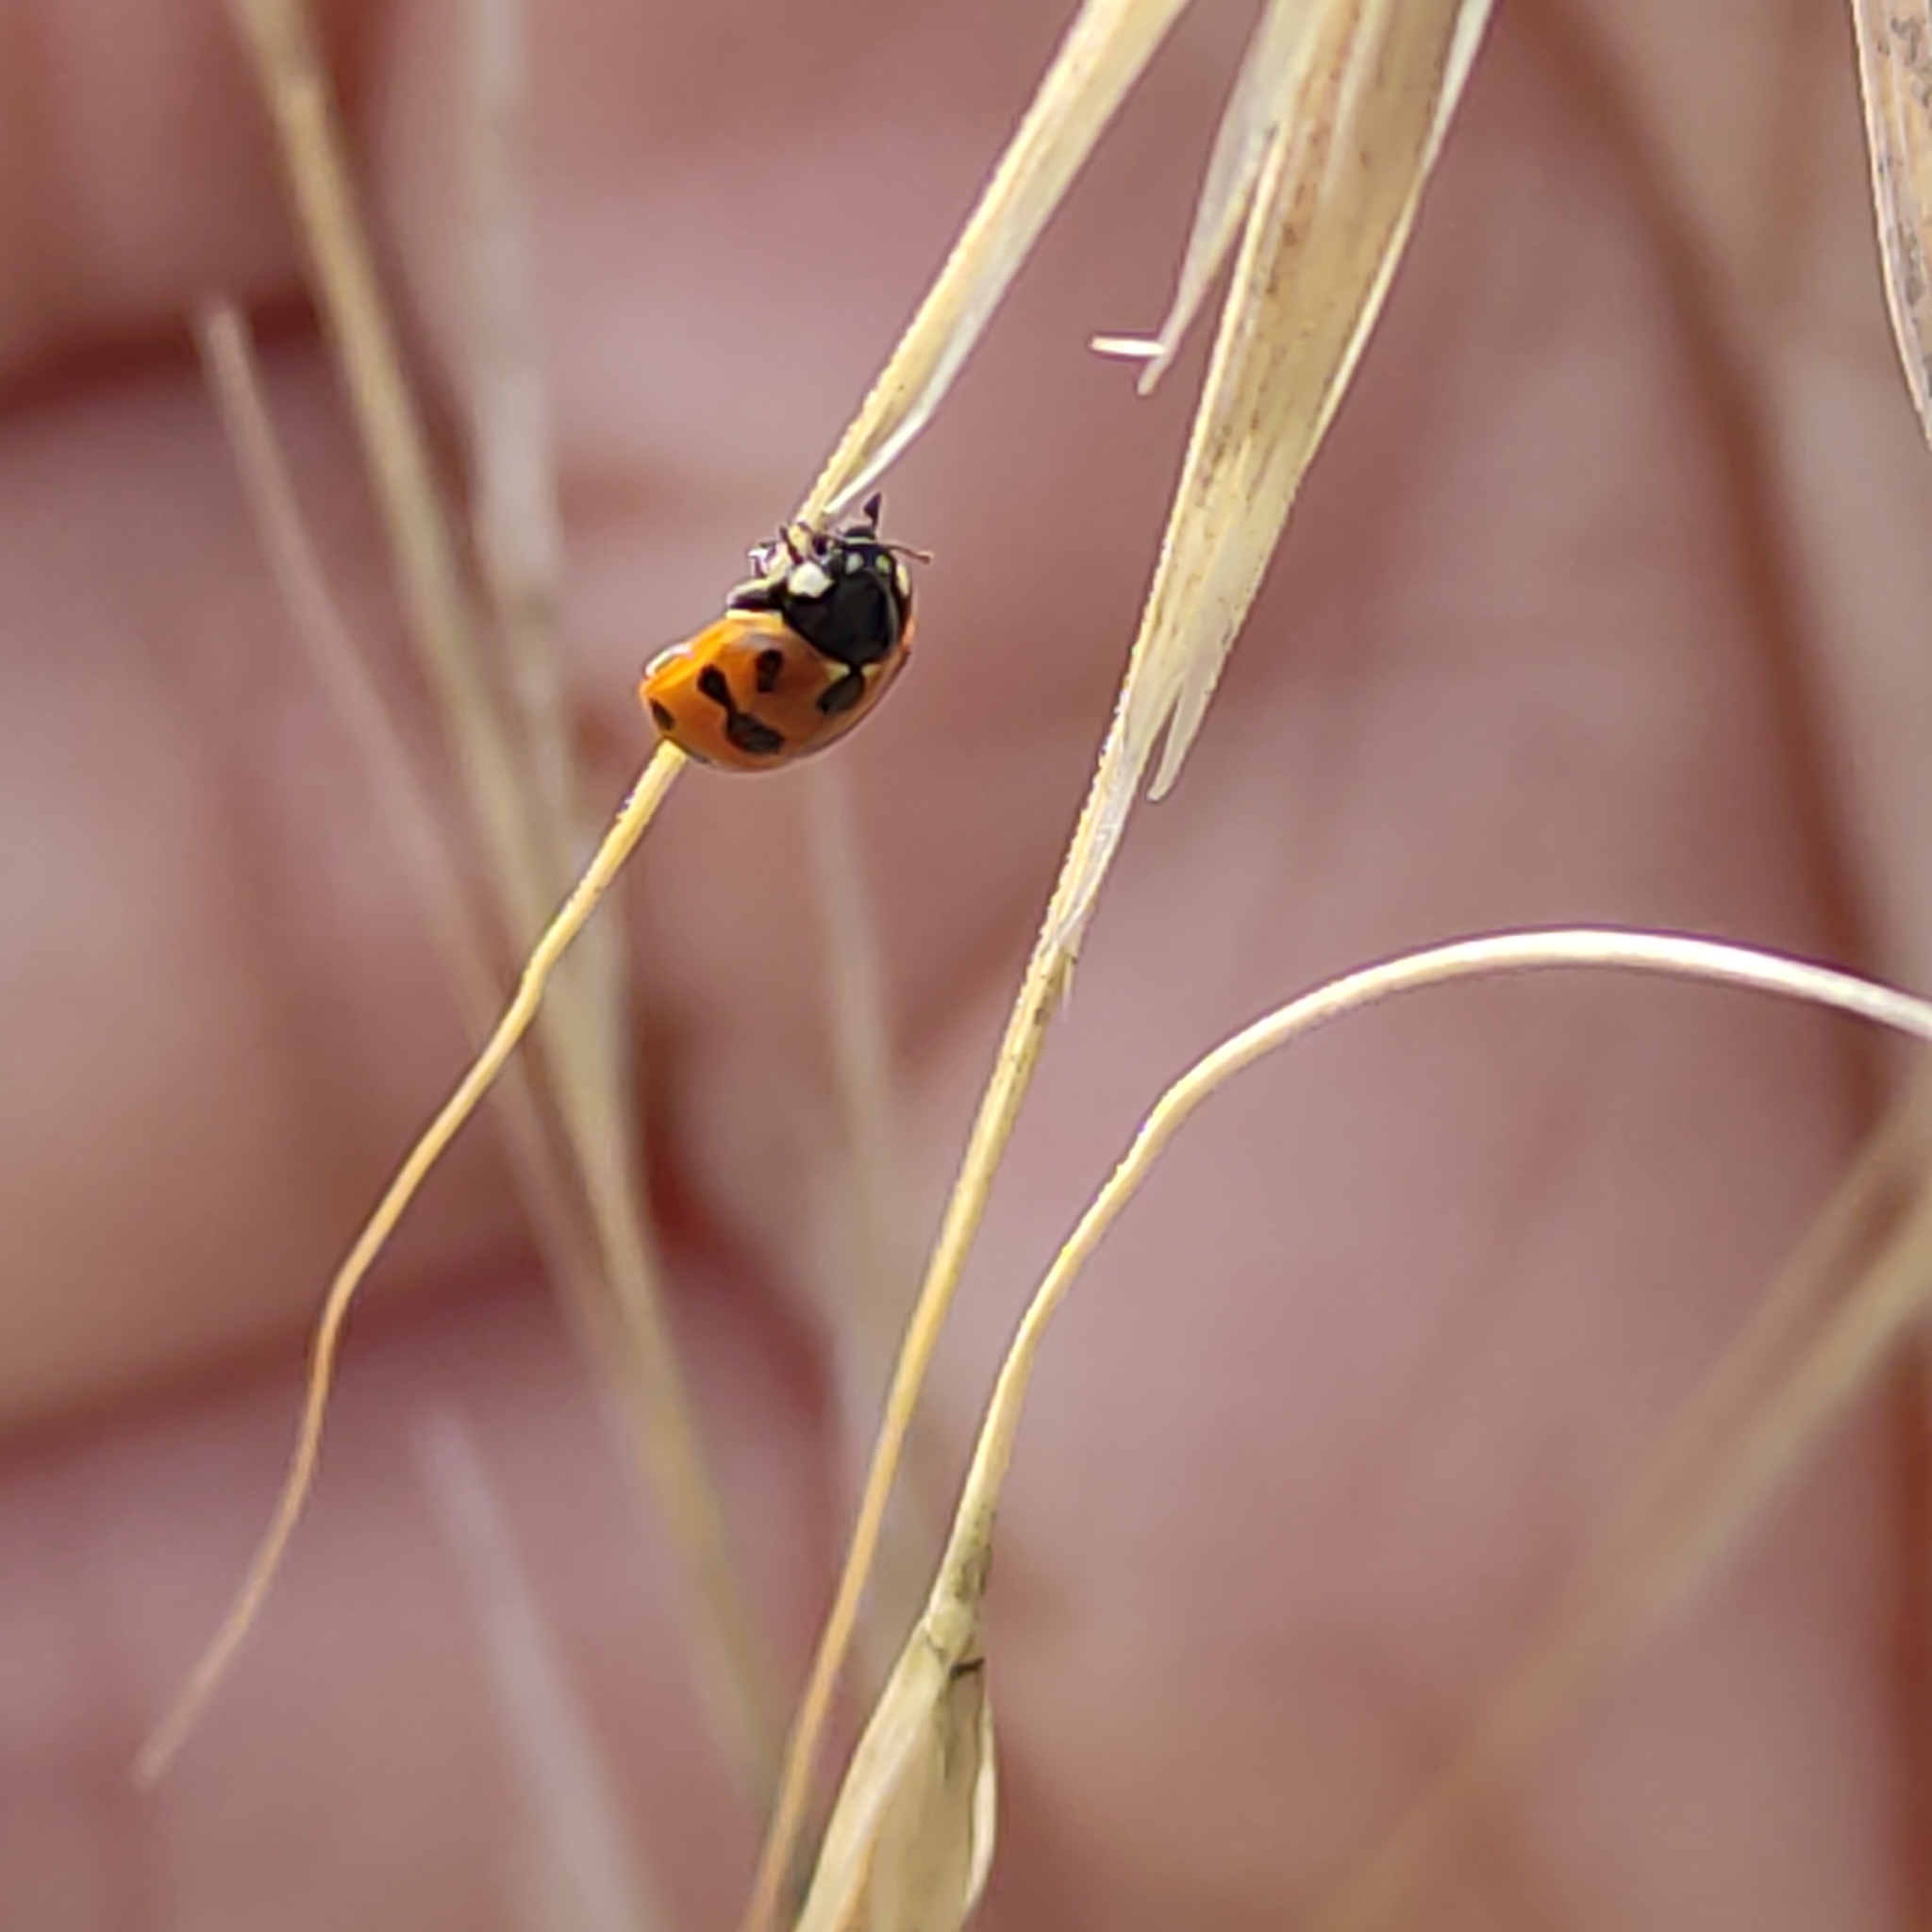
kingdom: Animalia
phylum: Arthropoda
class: Insecta
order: Coleoptera
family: Coccinellidae
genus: Coccinella
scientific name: Coccinella undecimpunctata
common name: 11-spot ladybird
